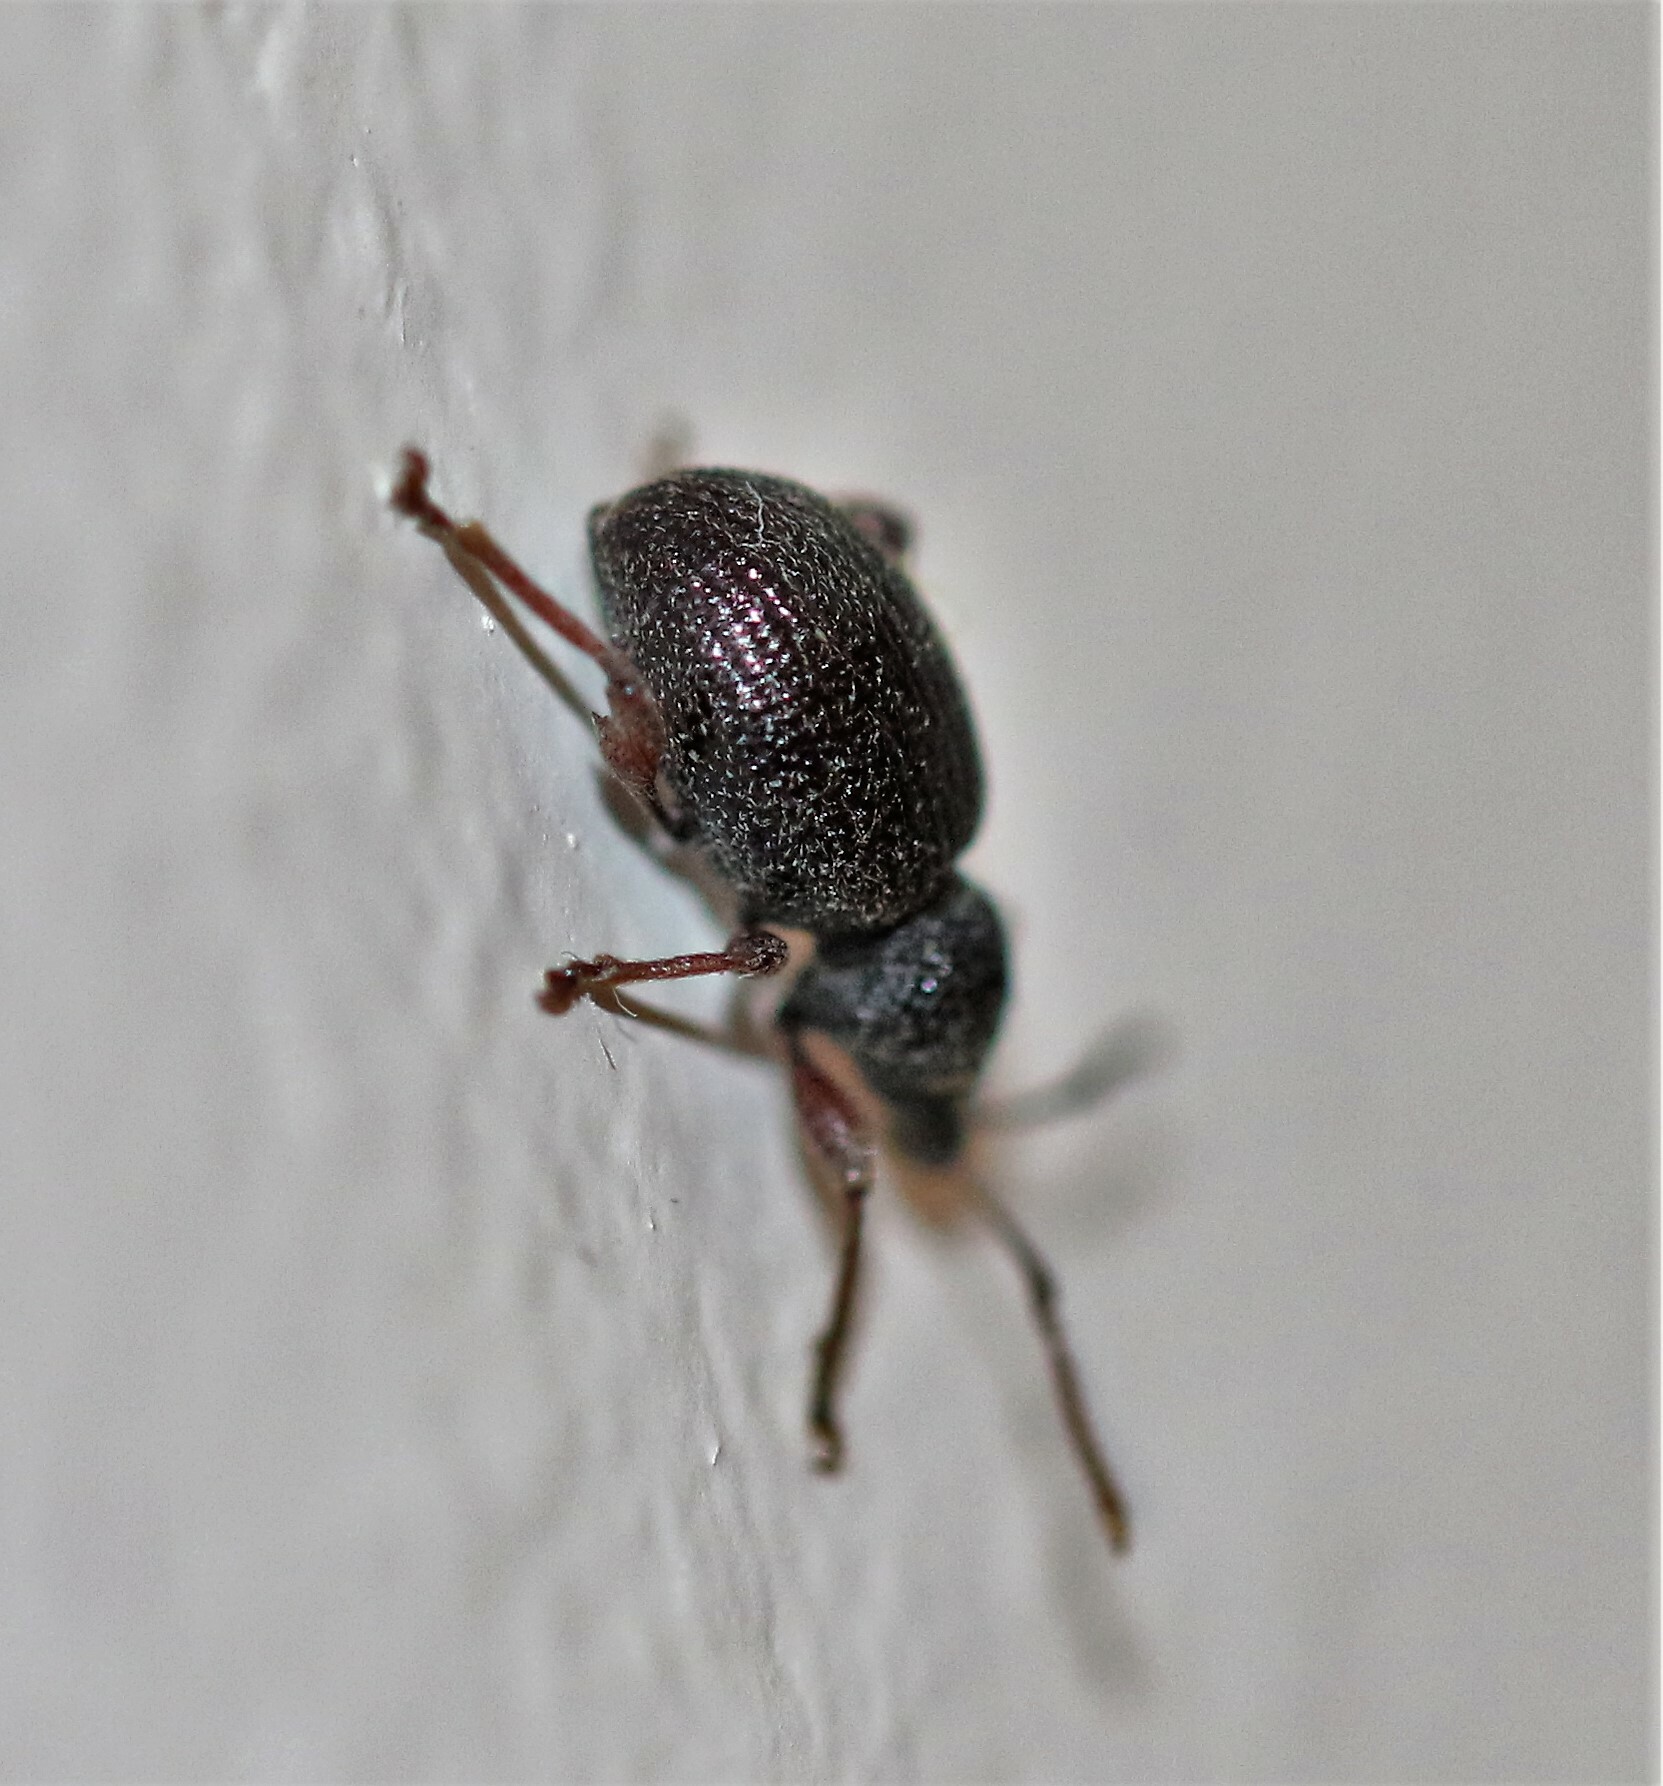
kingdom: Animalia
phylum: Arthropoda
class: Insecta
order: Coleoptera
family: Curculionidae
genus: Otiorhynchus
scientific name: Otiorhynchus ovatus
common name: Strawberry root weevil
